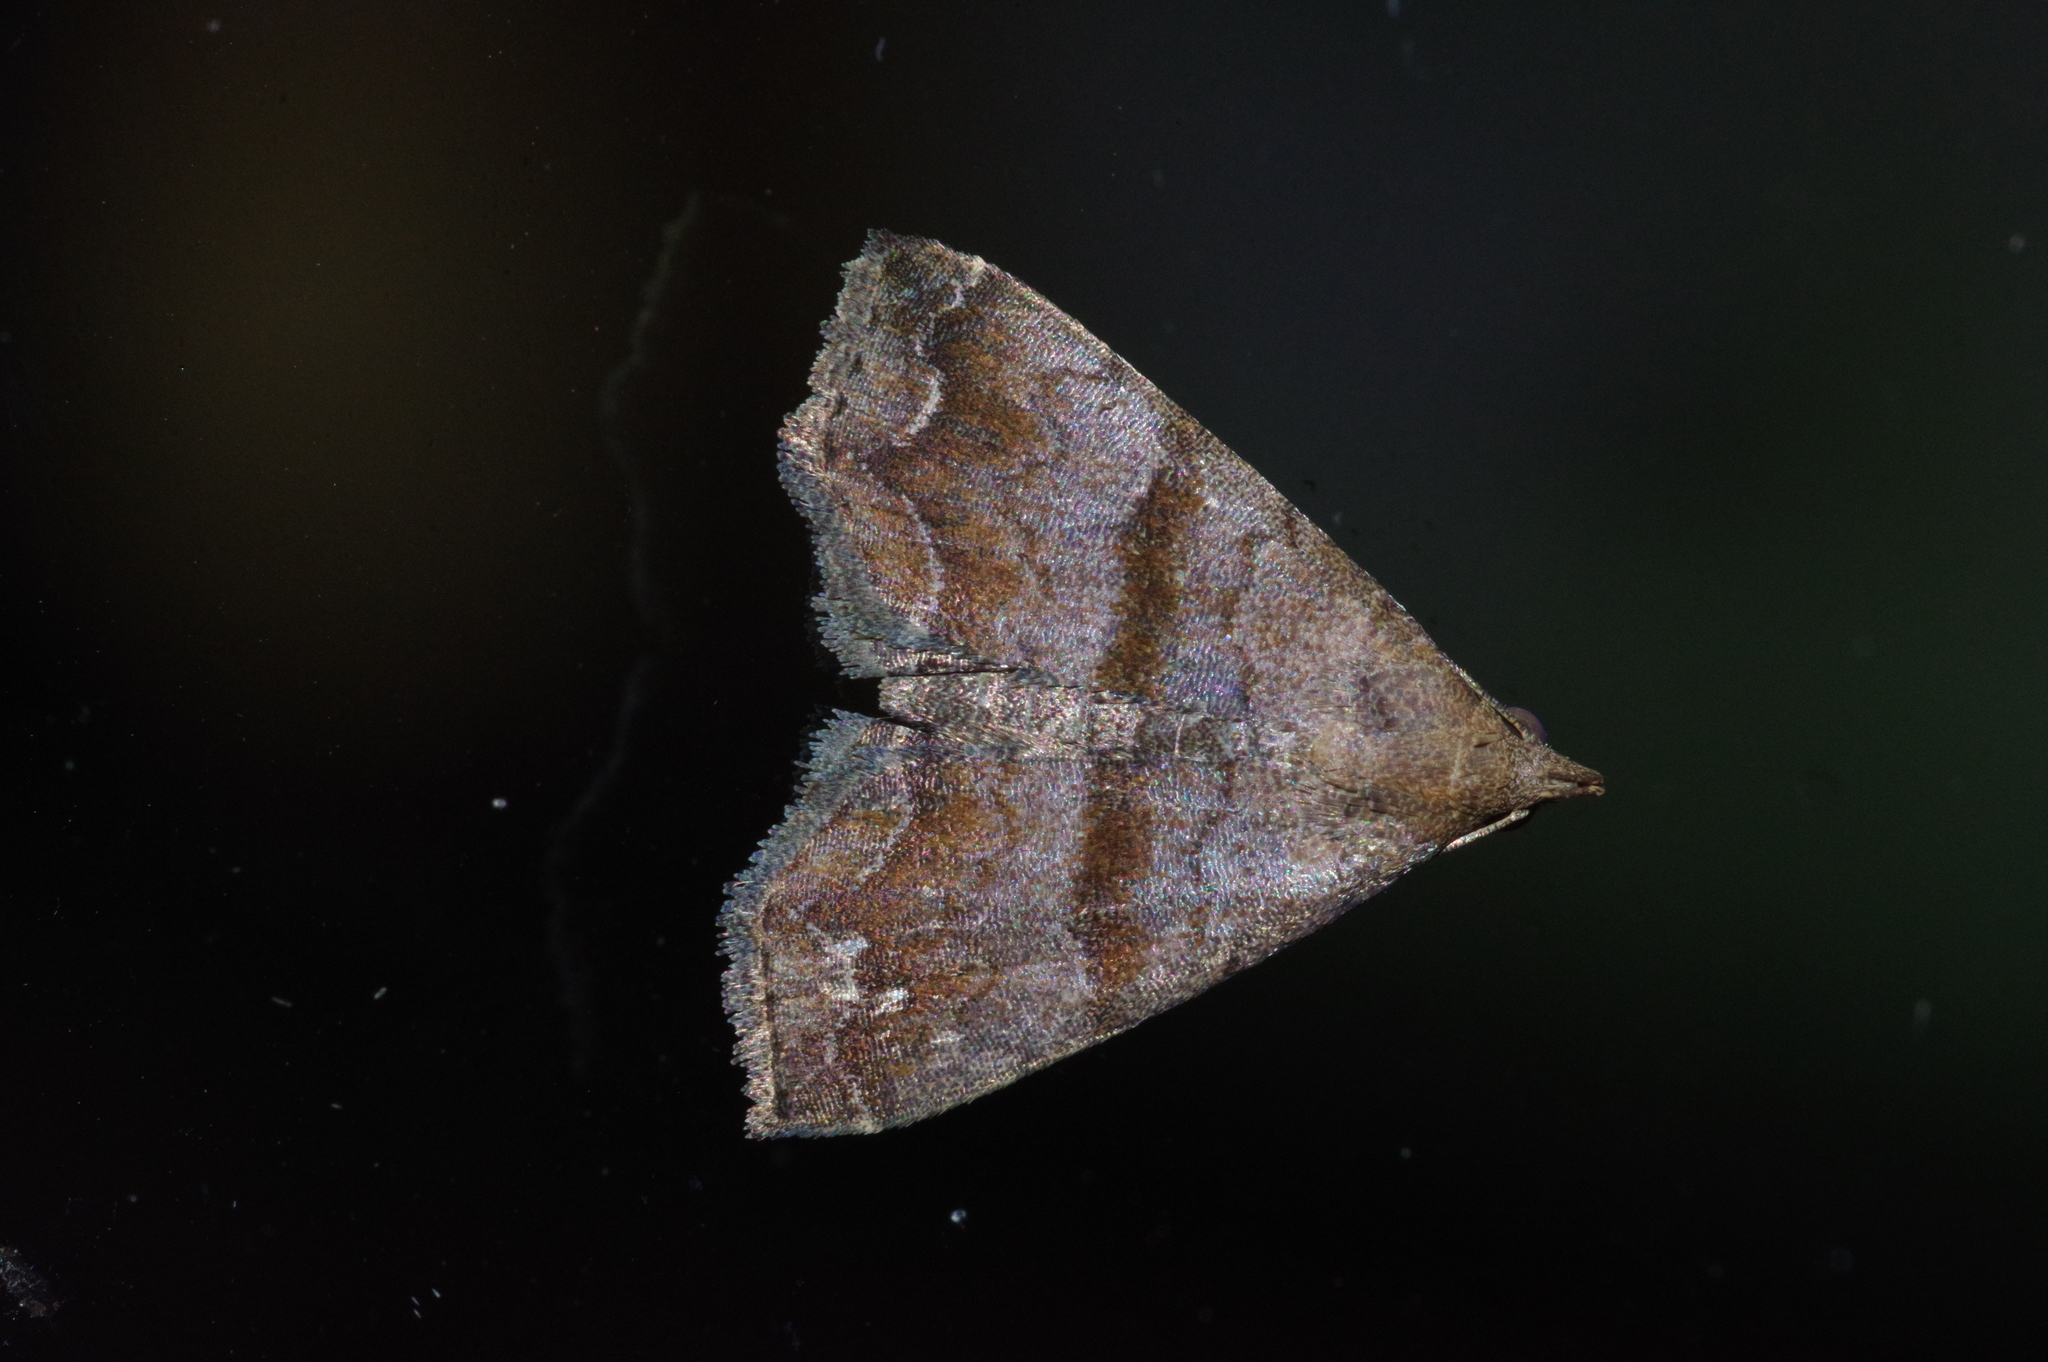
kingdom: Animalia
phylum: Arthropoda
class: Insecta
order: Lepidoptera
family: Erebidae
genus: Polypogon
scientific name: Polypogon Hipoepa fractalis
